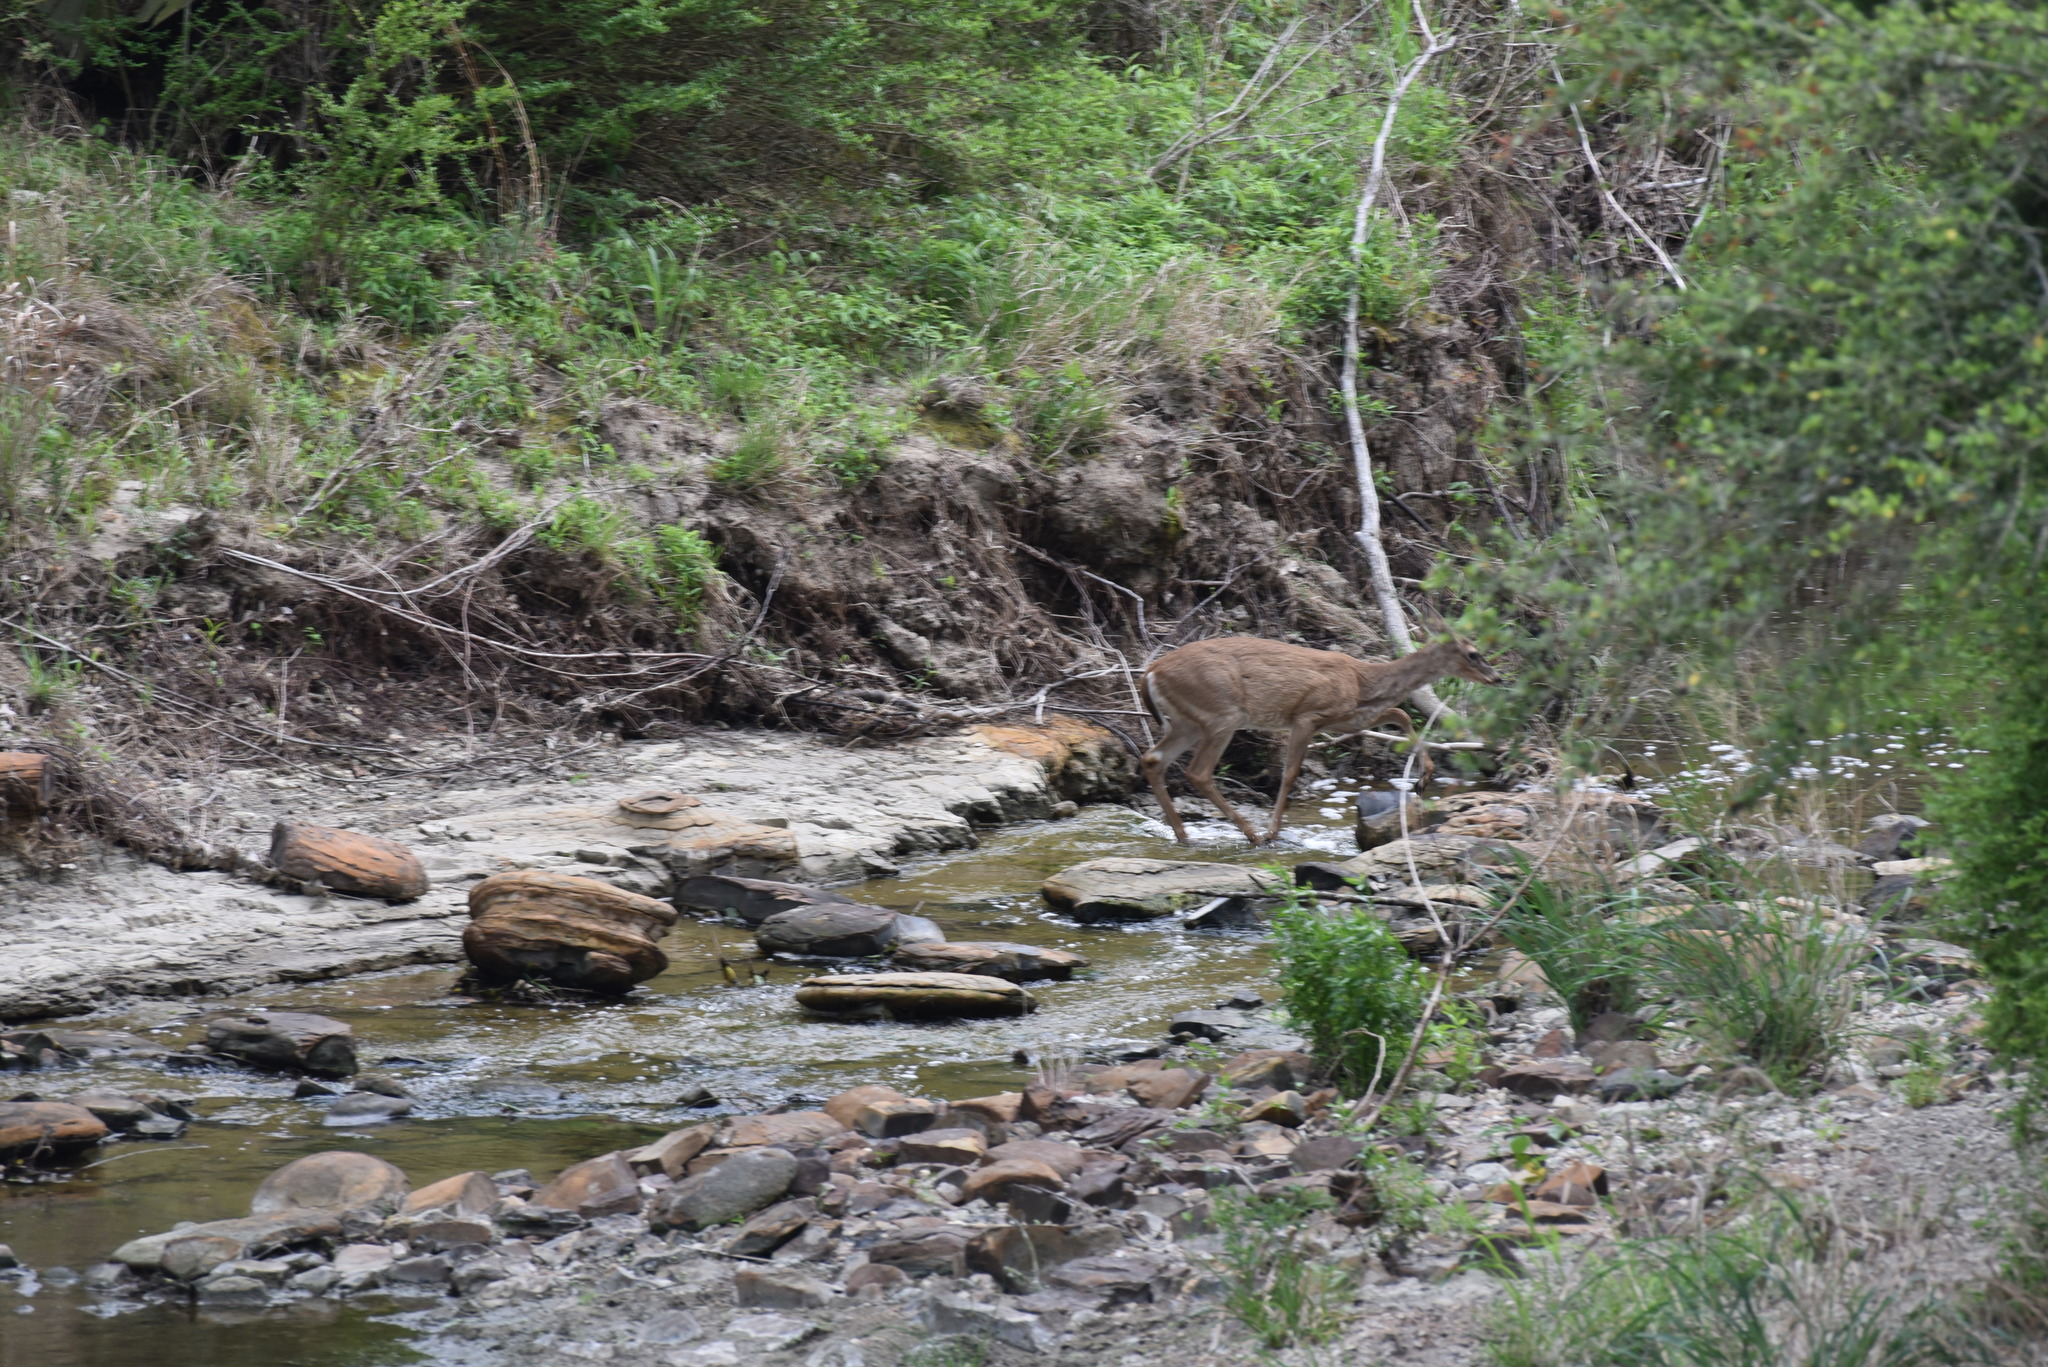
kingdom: Animalia
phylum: Chordata
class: Mammalia
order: Artiodactyla
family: Cervidae
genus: Odocoileus
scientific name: Odocoileus virginianus
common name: White-tailed deer
